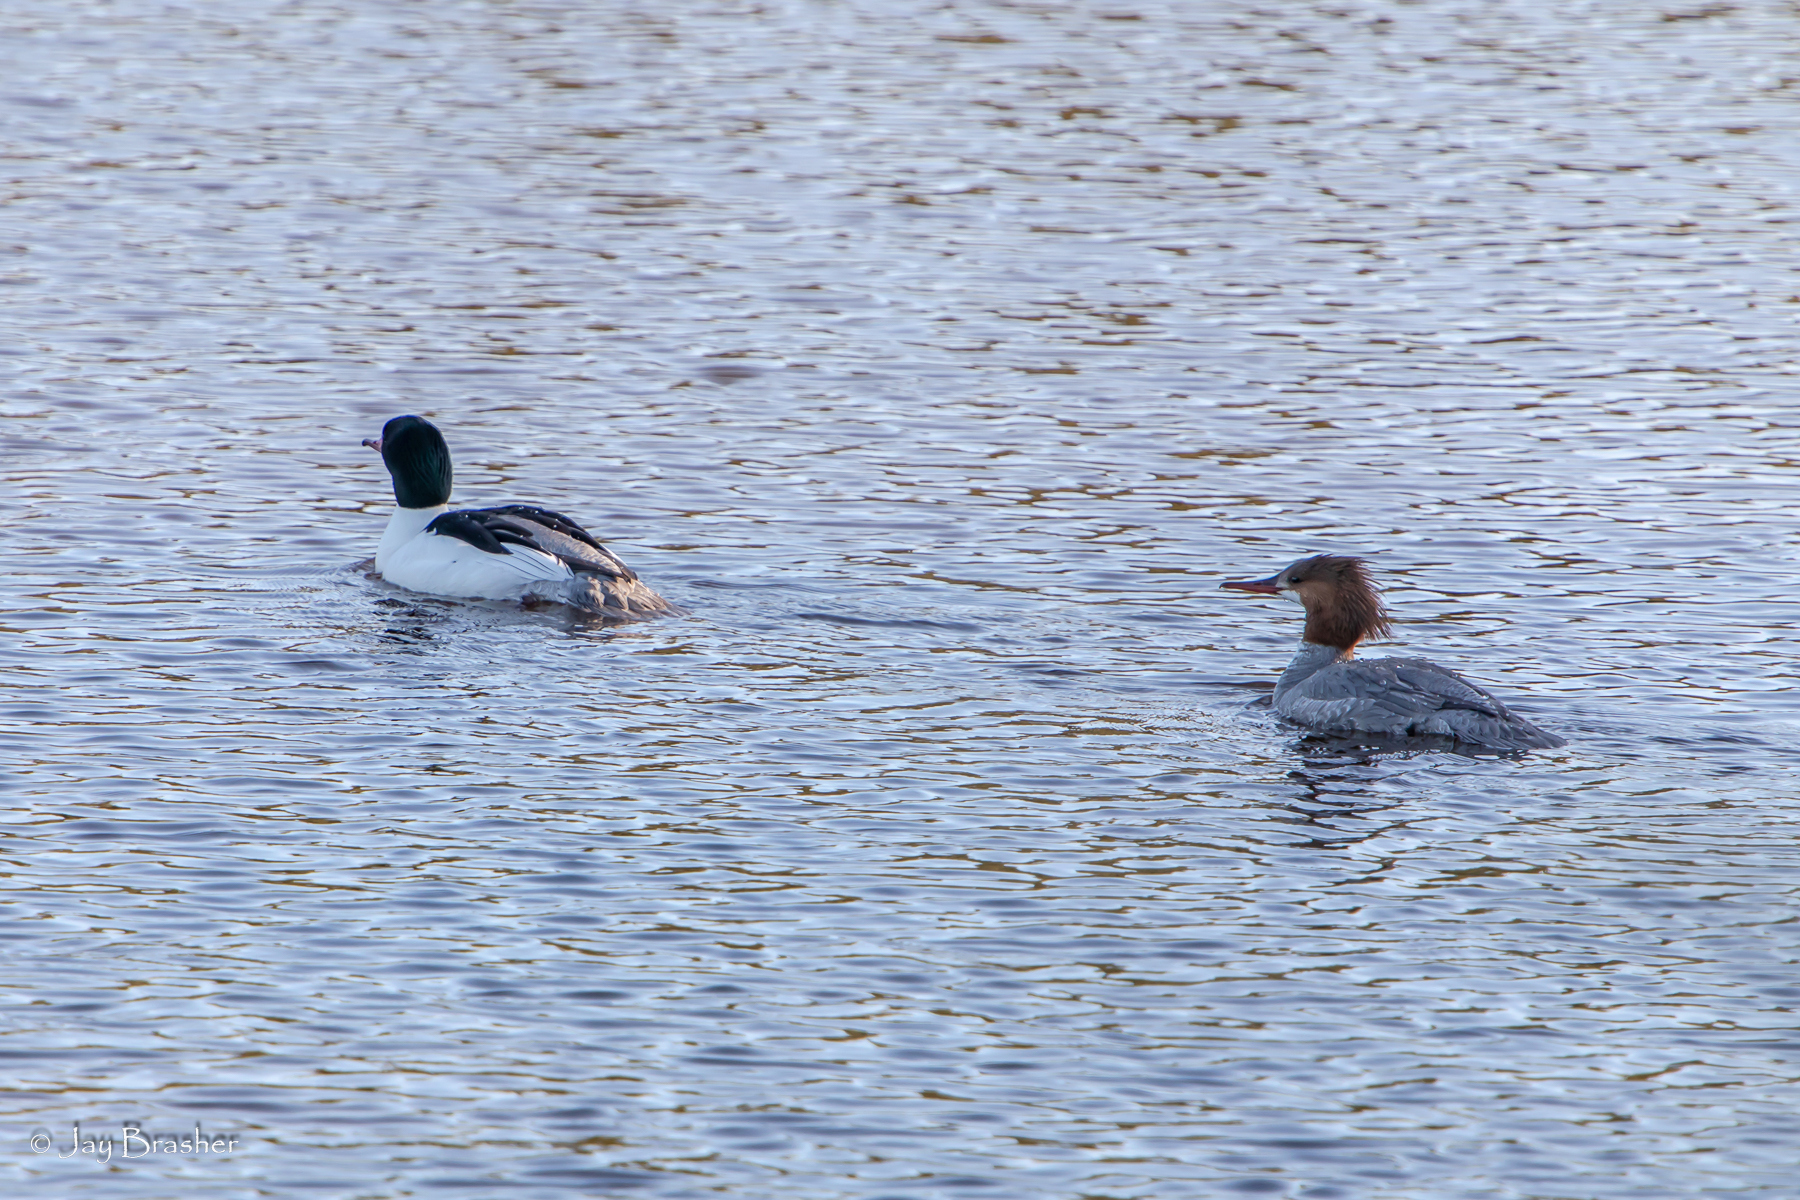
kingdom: Animalia
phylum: Chordata
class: Aves
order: Anseriformes
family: Anatidae
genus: Mergus
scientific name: Mergus merganser
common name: Common merganser
